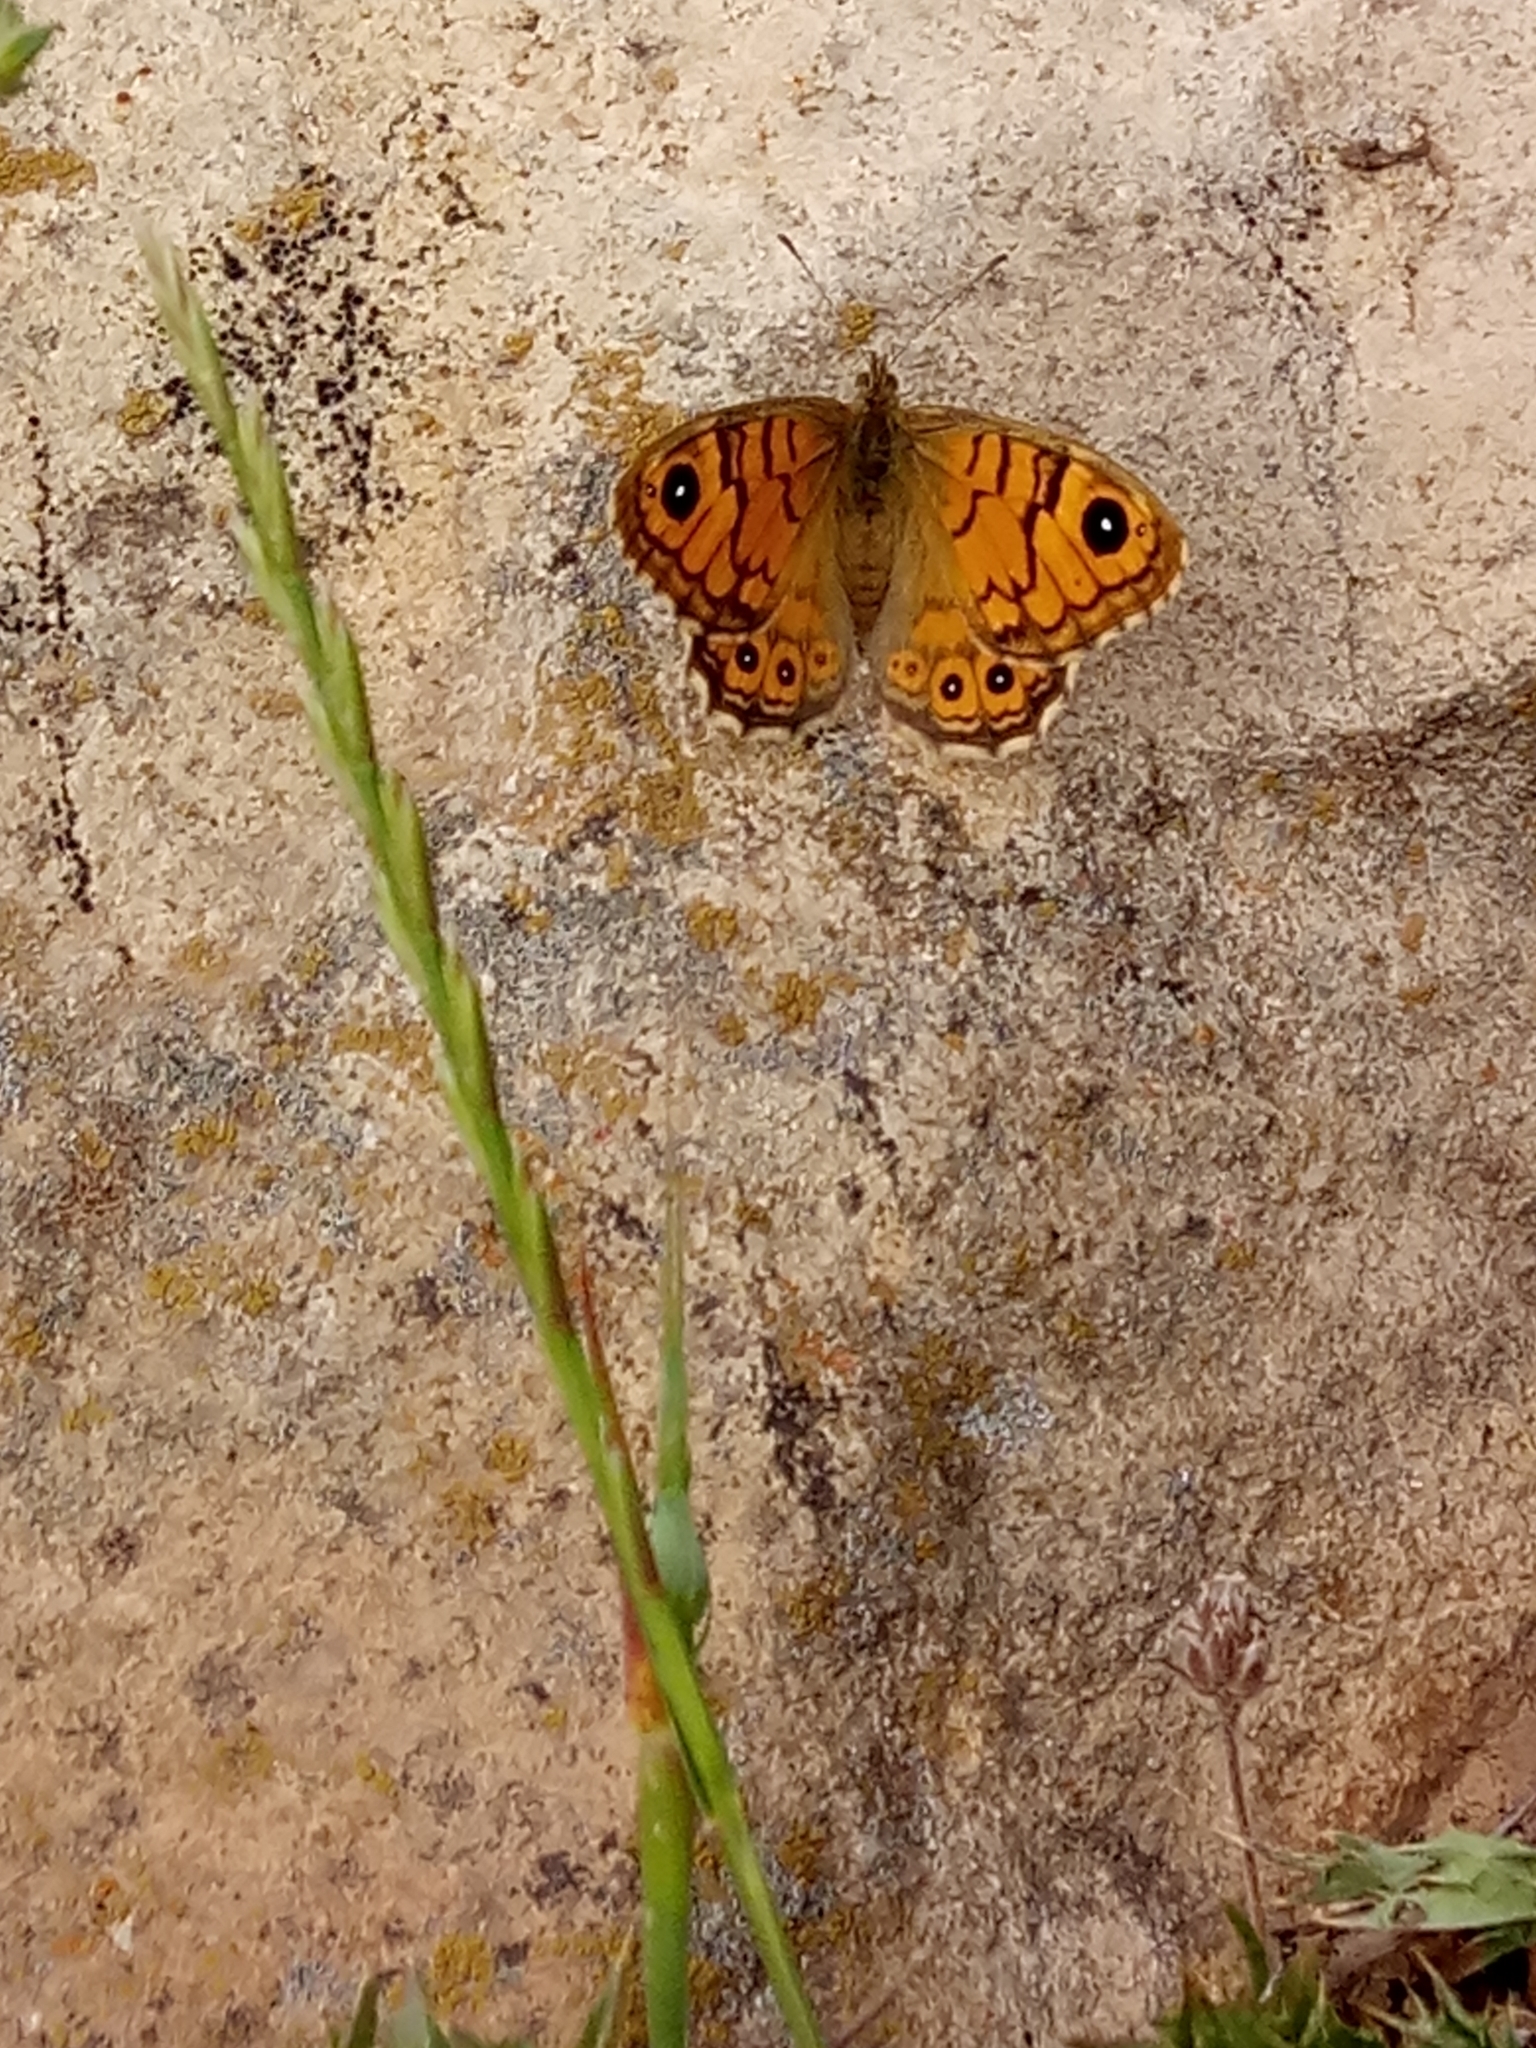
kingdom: Animalia
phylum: Arthropoda
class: Insecta
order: Lepidoptera
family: Nymphalidae
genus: Pararge
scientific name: Pararge Lasiommata megera
